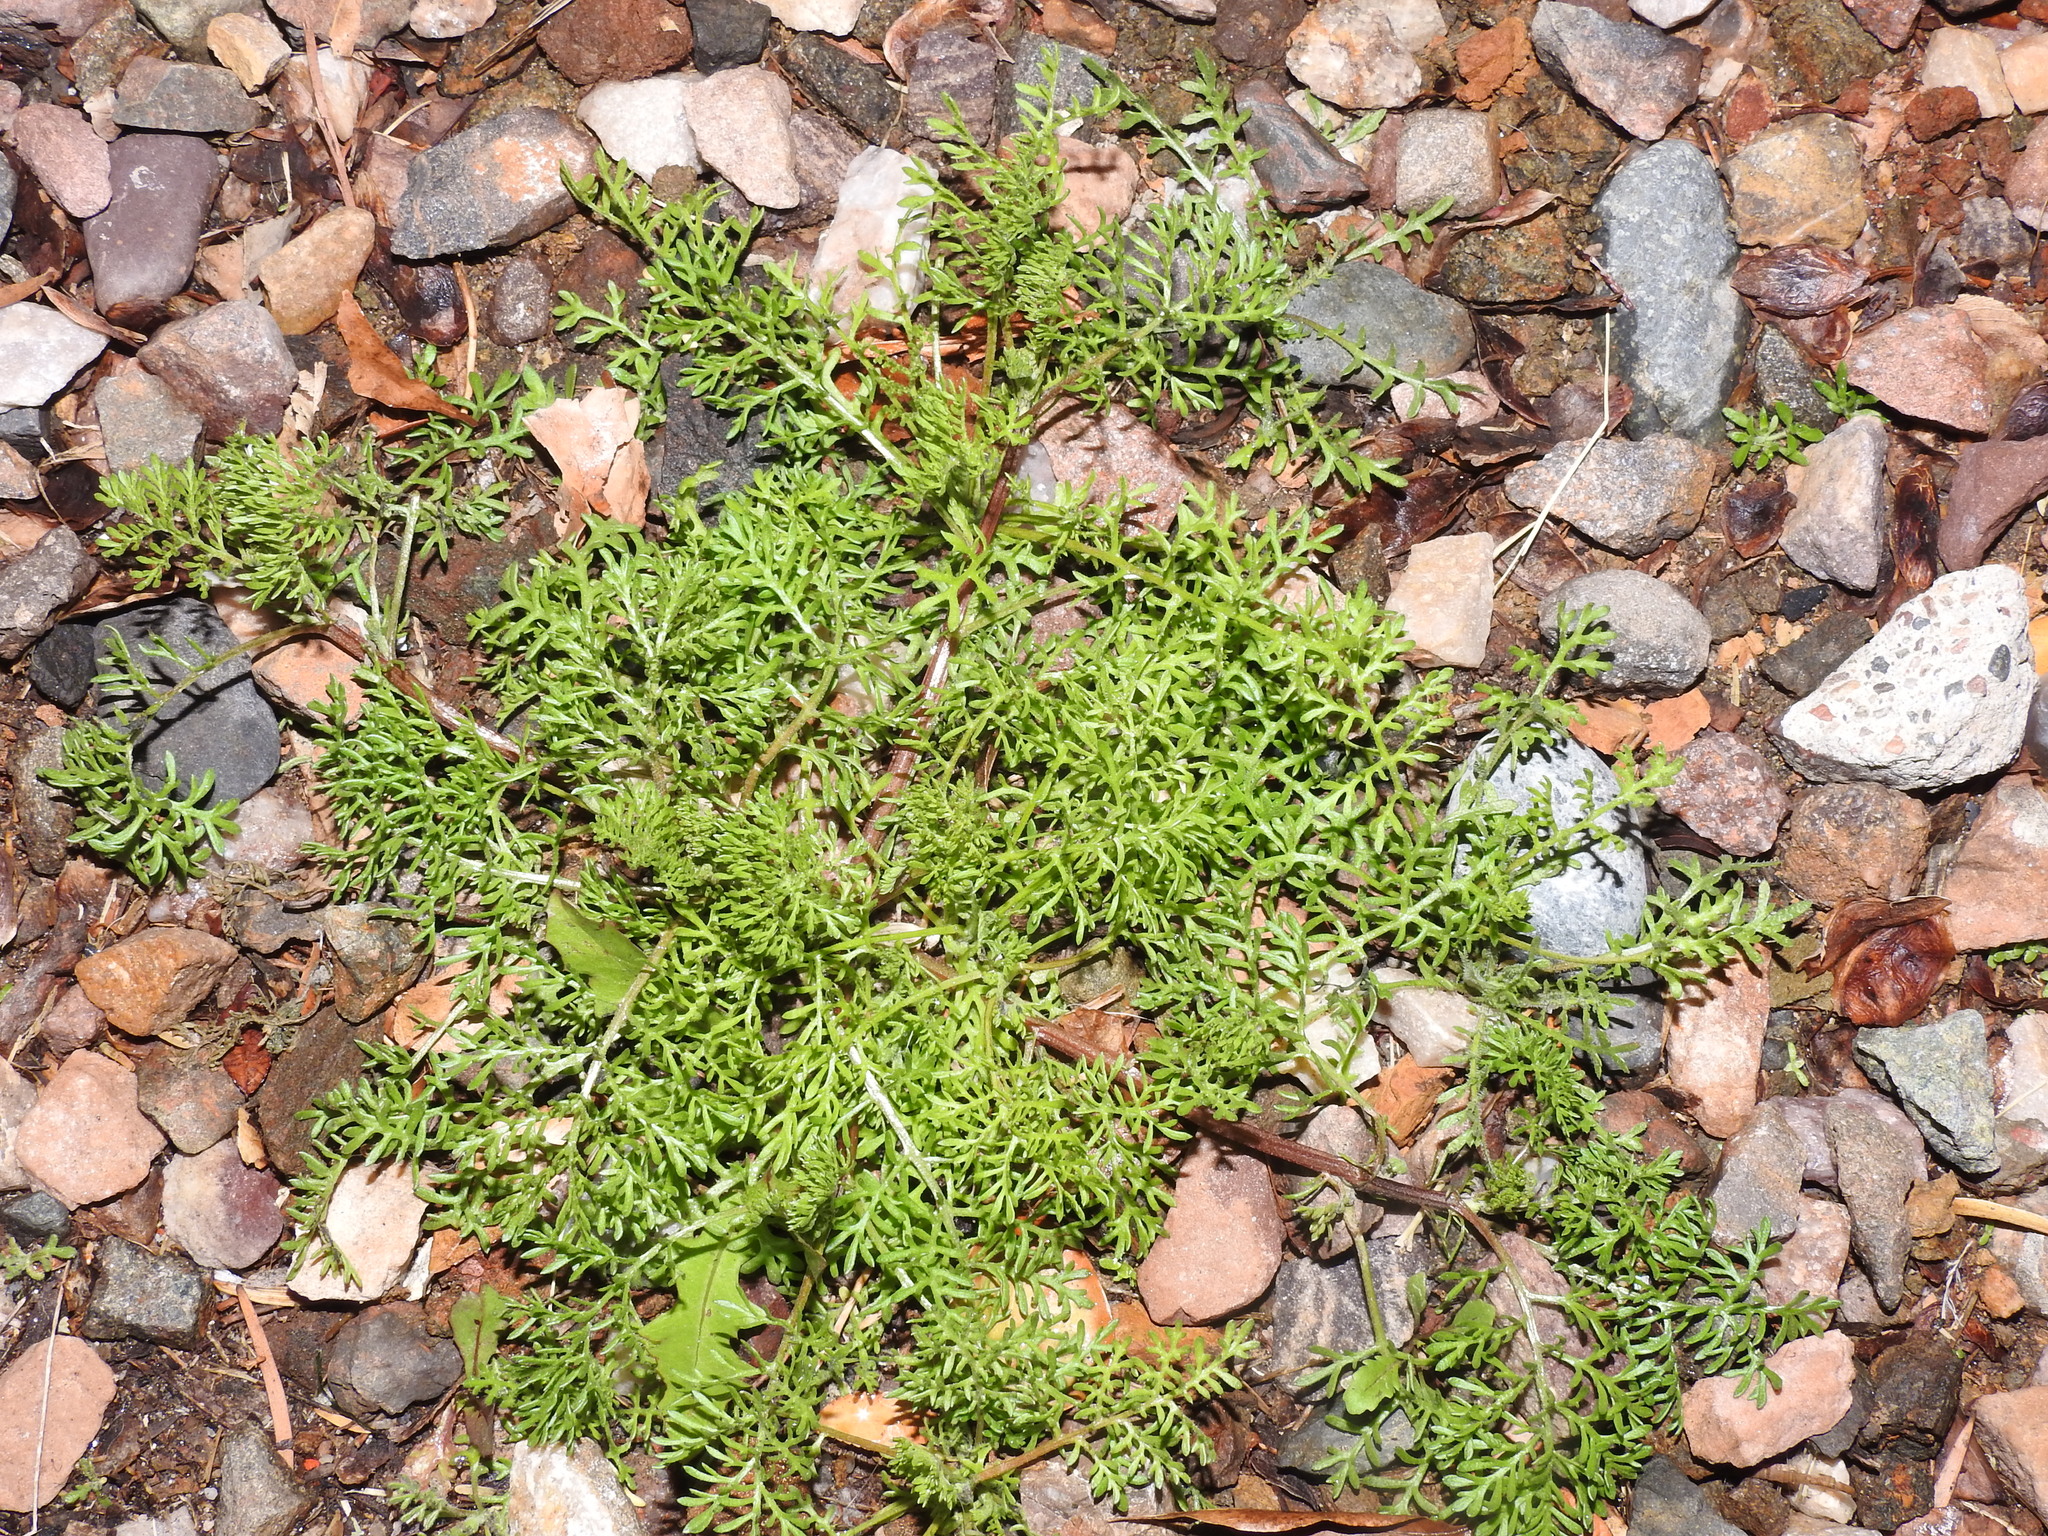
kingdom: Plantae
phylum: Tracheophyta
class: Magnoliopsida
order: Asterales
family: Asteraceae
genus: Oncosiphon
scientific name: Oncosiphon pilulifer
